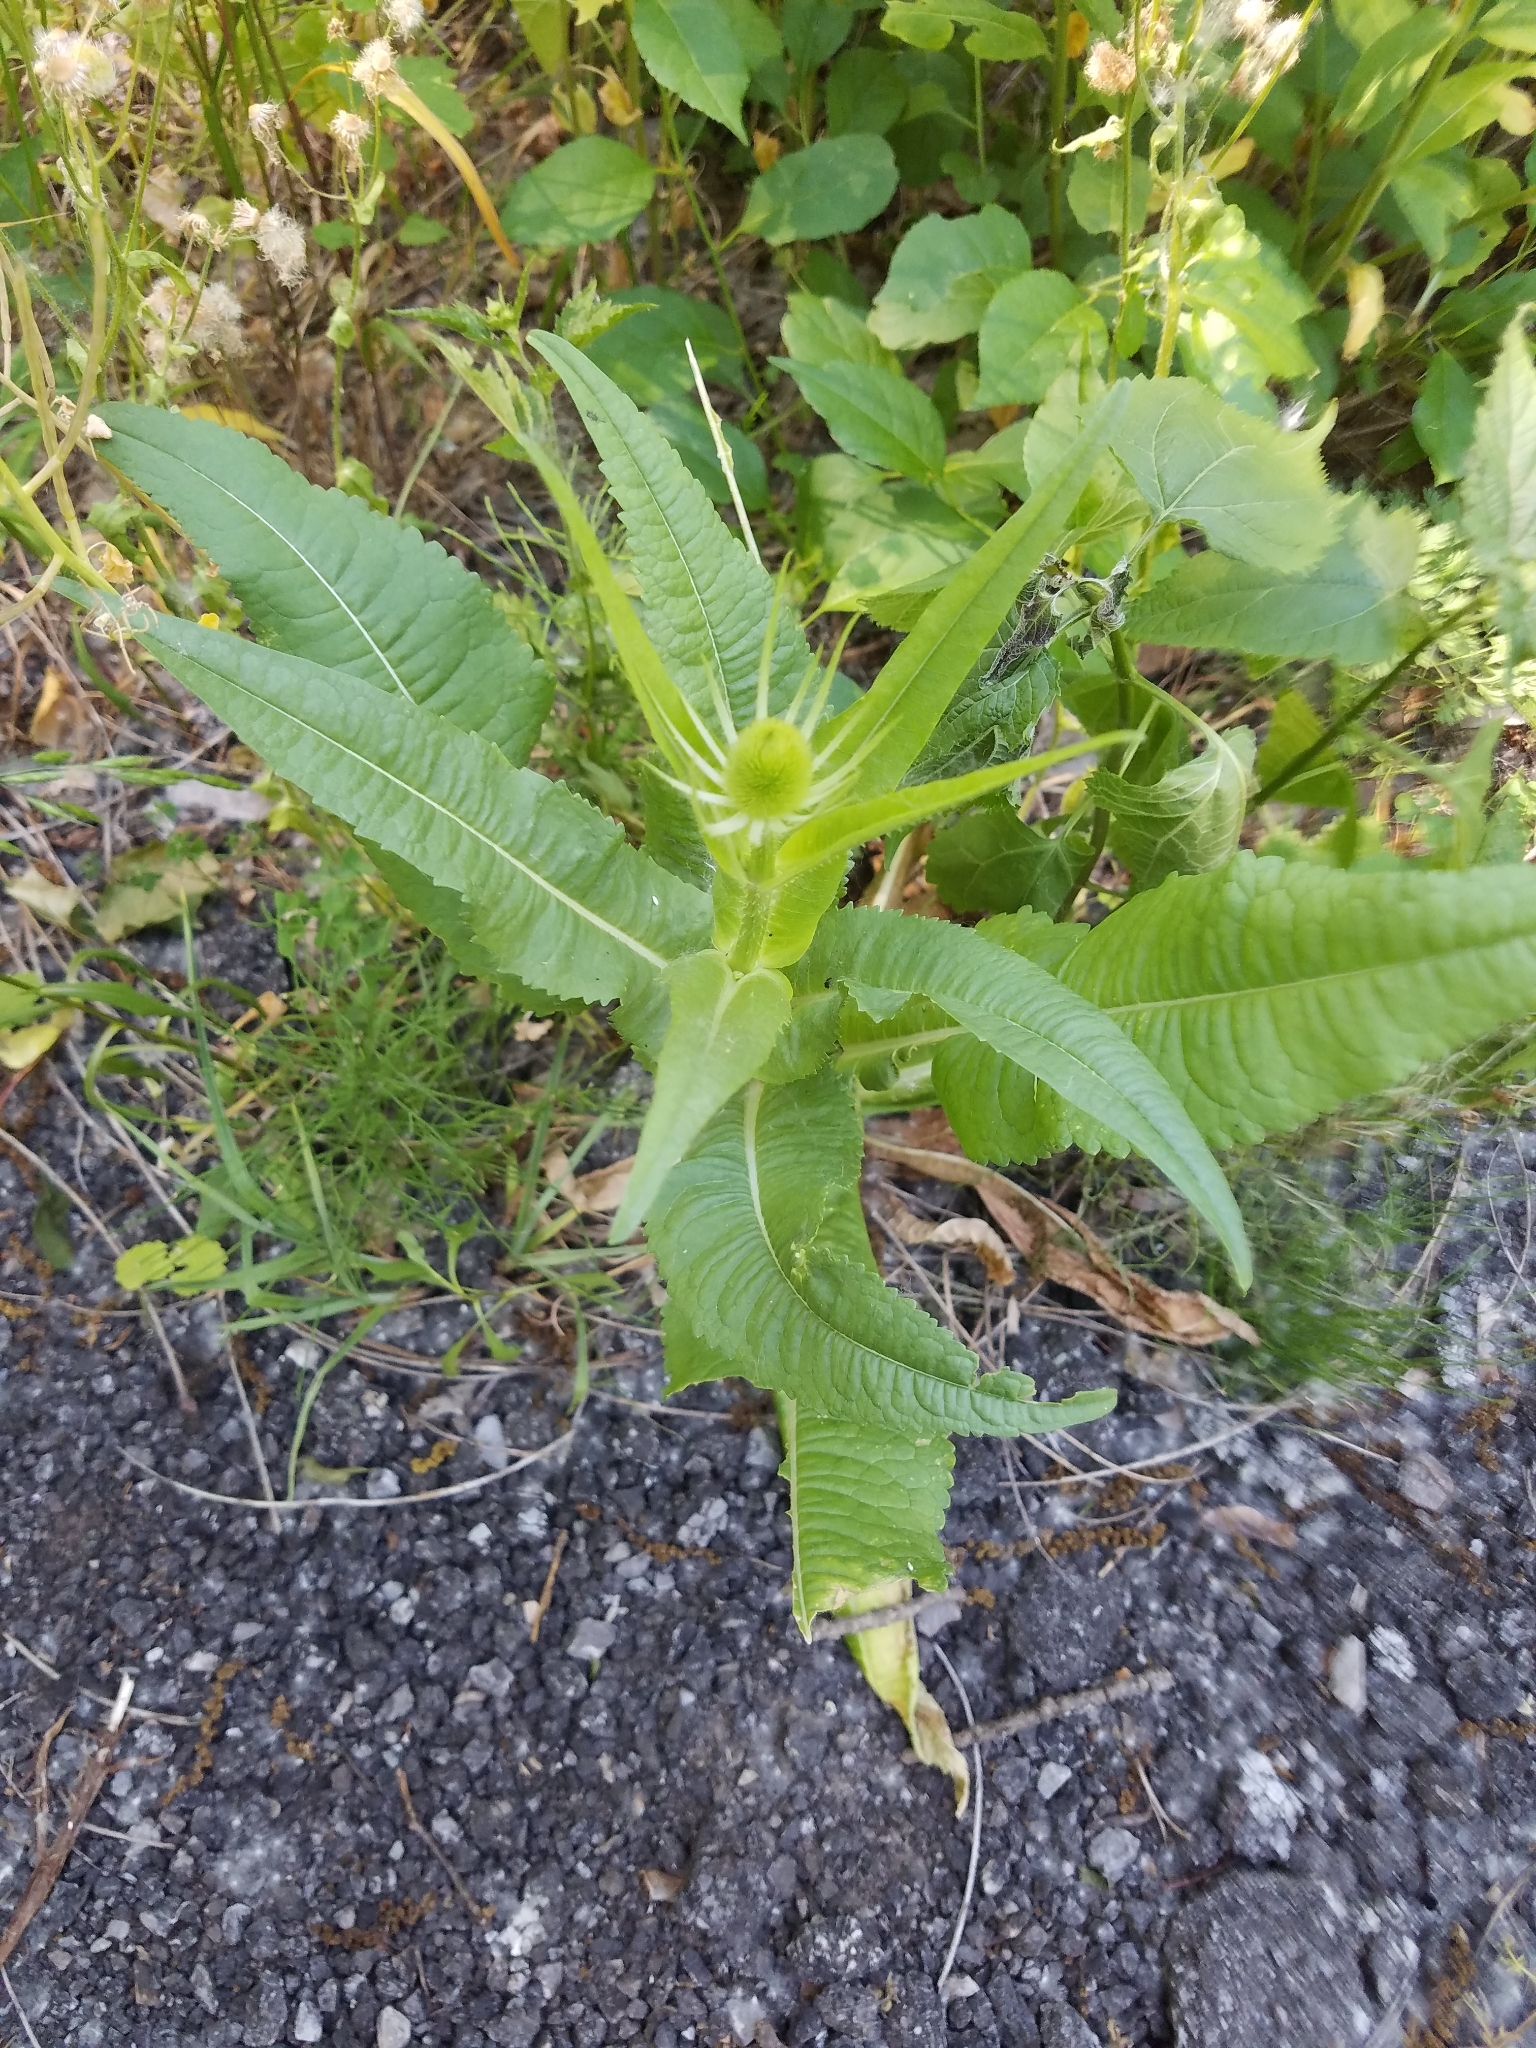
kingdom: Plantae
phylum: Tracheophyta
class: Magnoliopsida
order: Dipsacales
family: Caprifoliaceae
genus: Dipsacus
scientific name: Dipsacus fullonum
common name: Teasel
